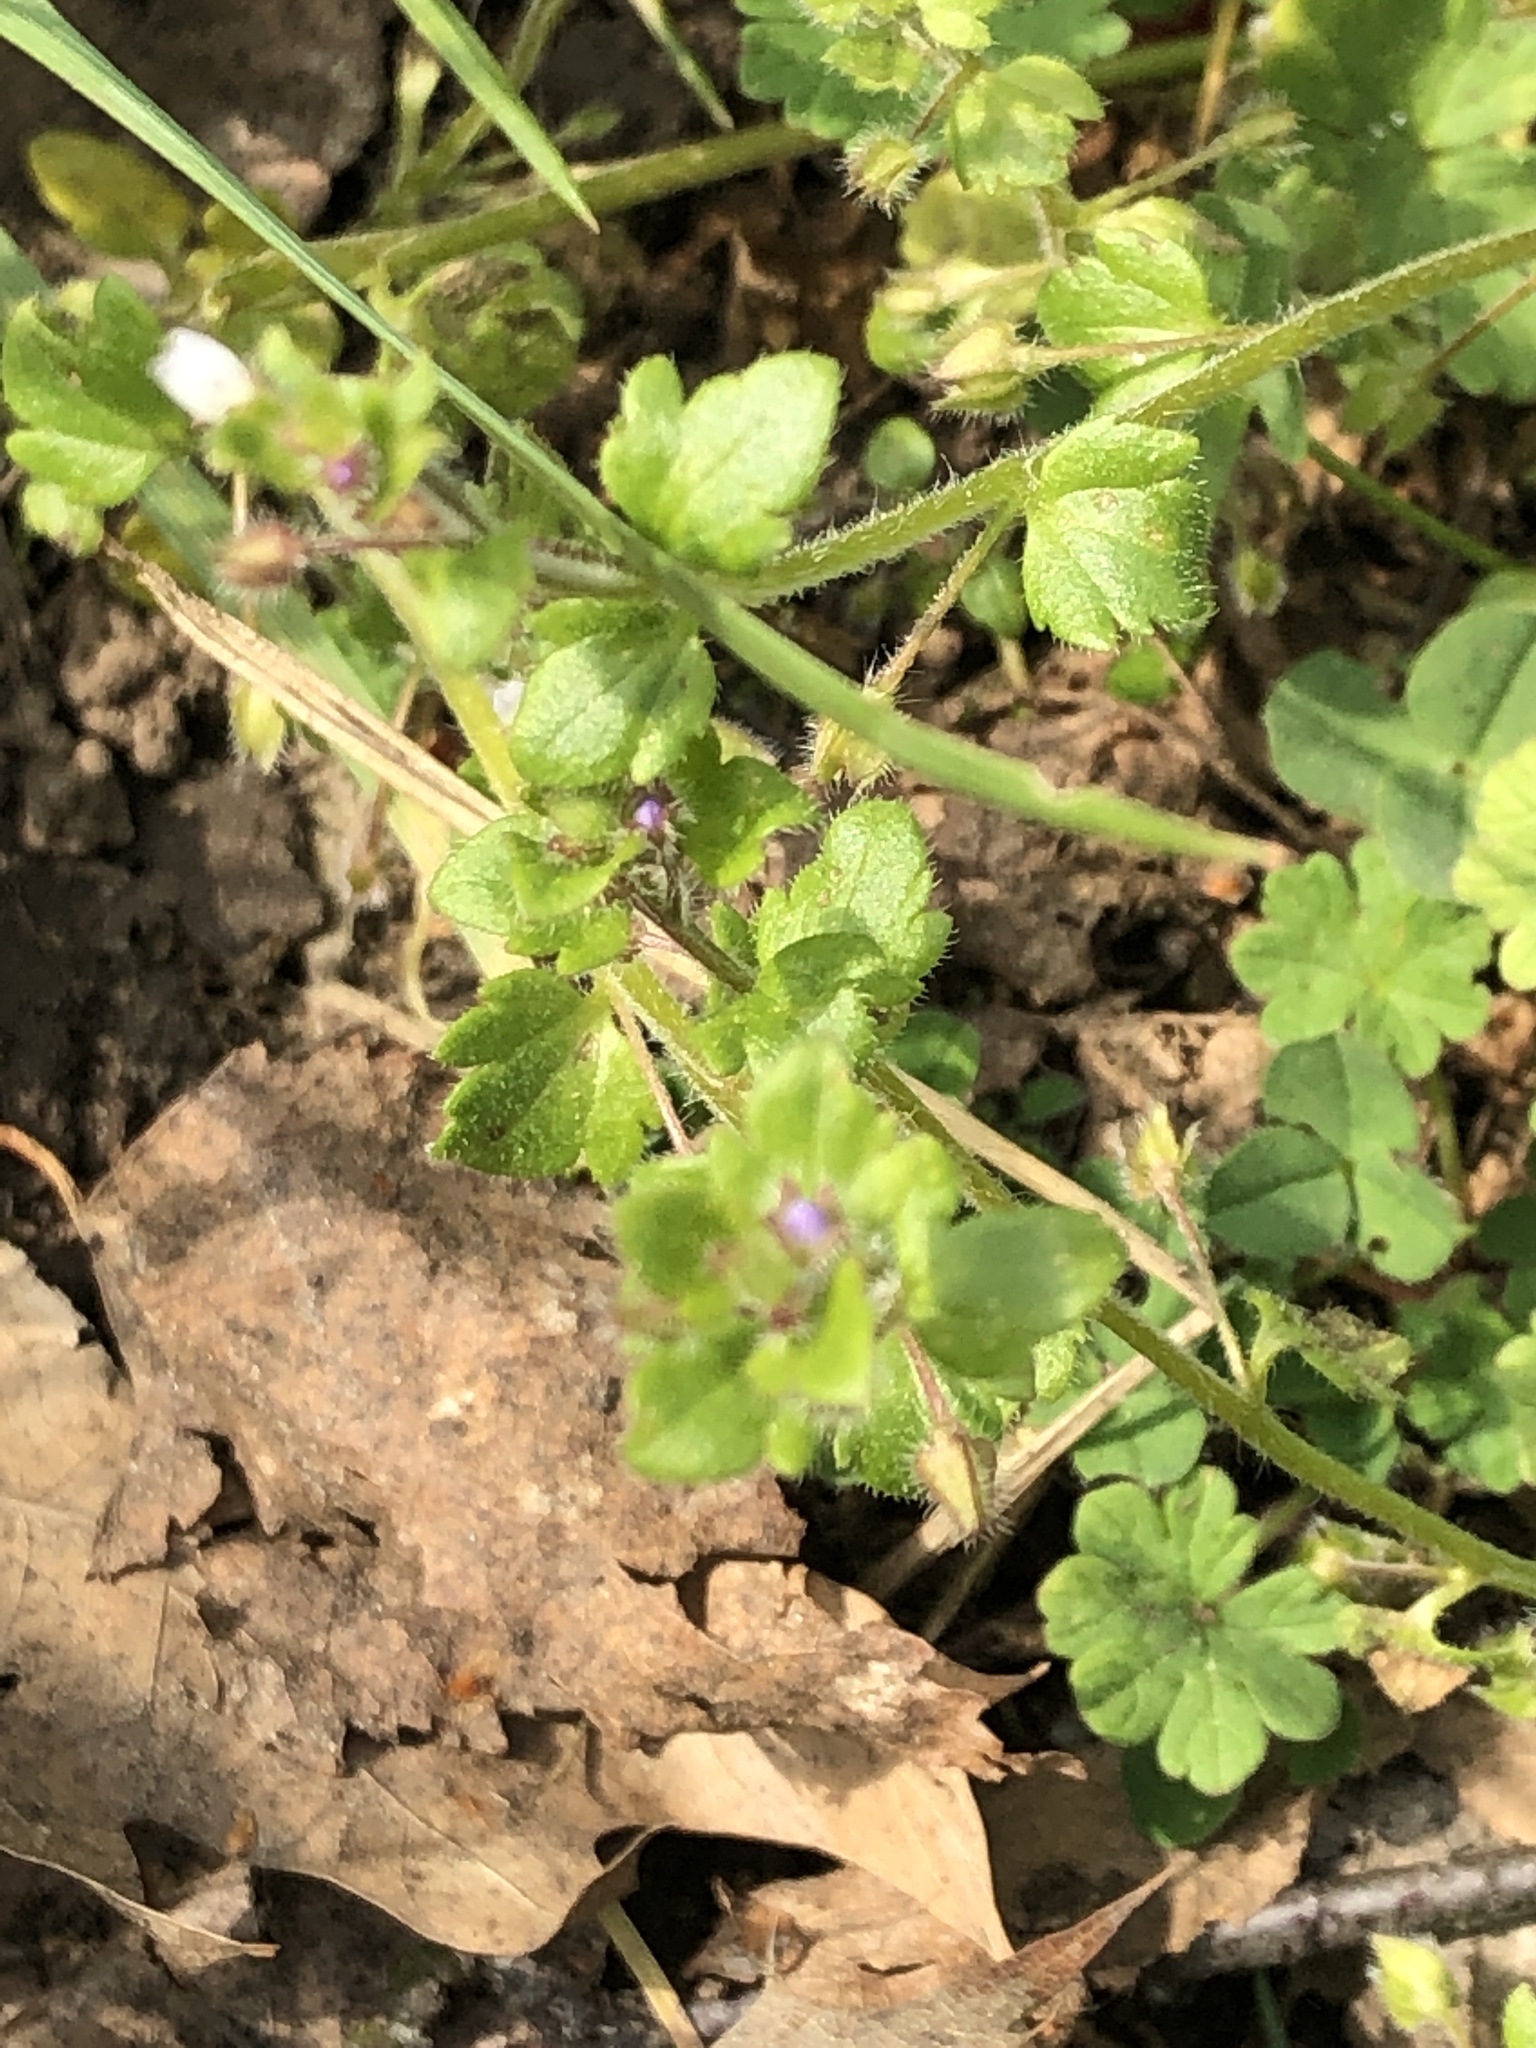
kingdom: Plantae
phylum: Tracheophyta
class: Magnoliopsida
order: Lamiales
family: Plantaginaceae
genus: Veronica
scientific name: Veronica sublobata
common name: False ivy-leaved speedwell
